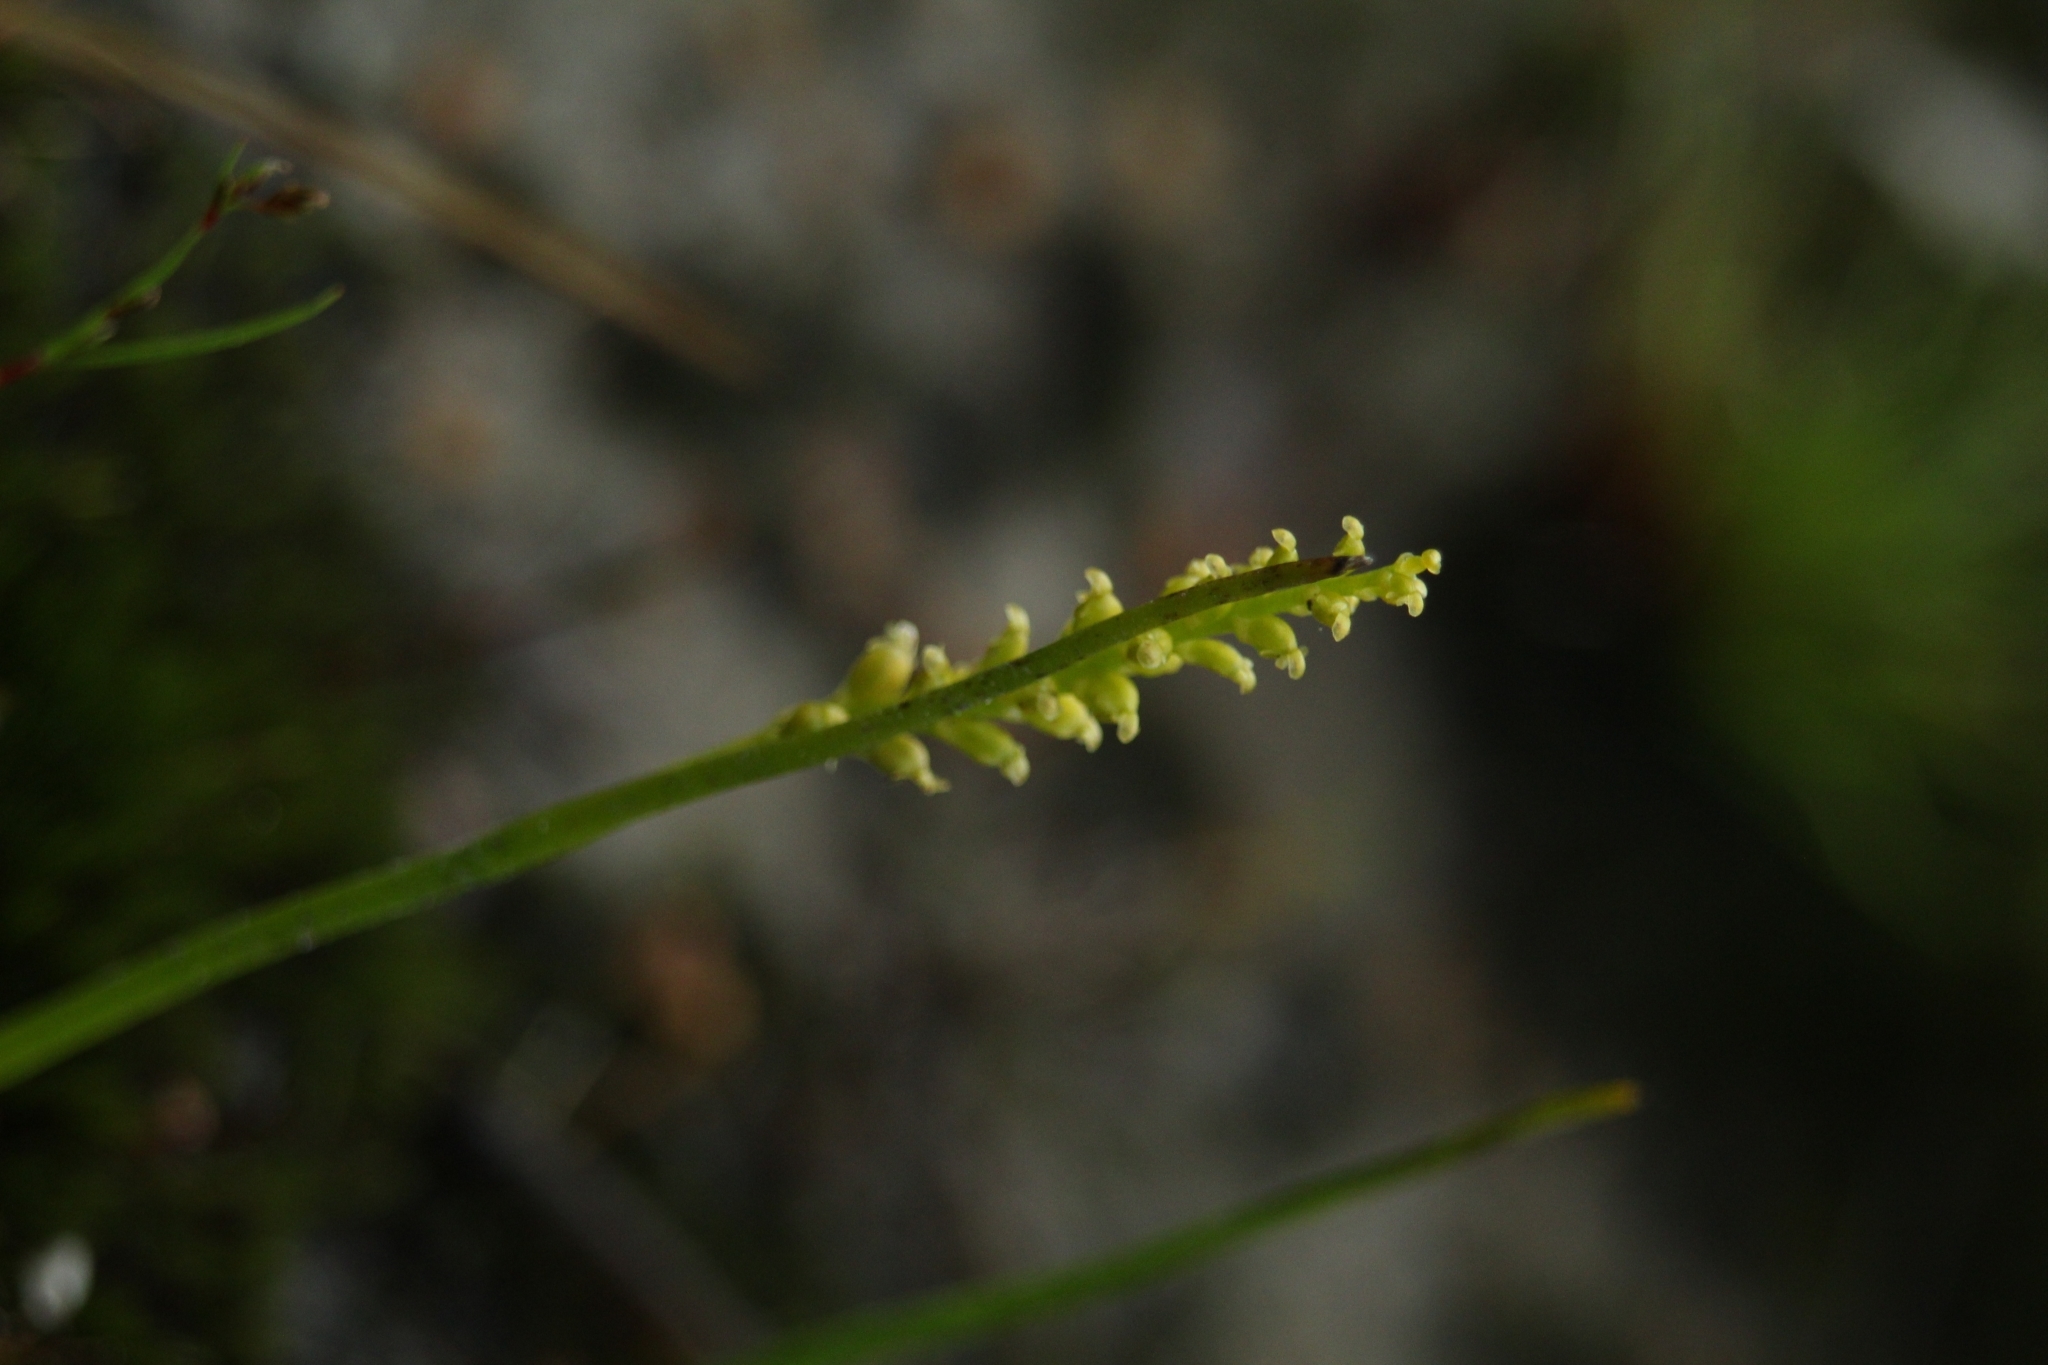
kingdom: Plantae
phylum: Tracheophyta
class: Liliopsida
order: Asparagales
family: Orchidaceae
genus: Microtis
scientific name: Microtis atrata
